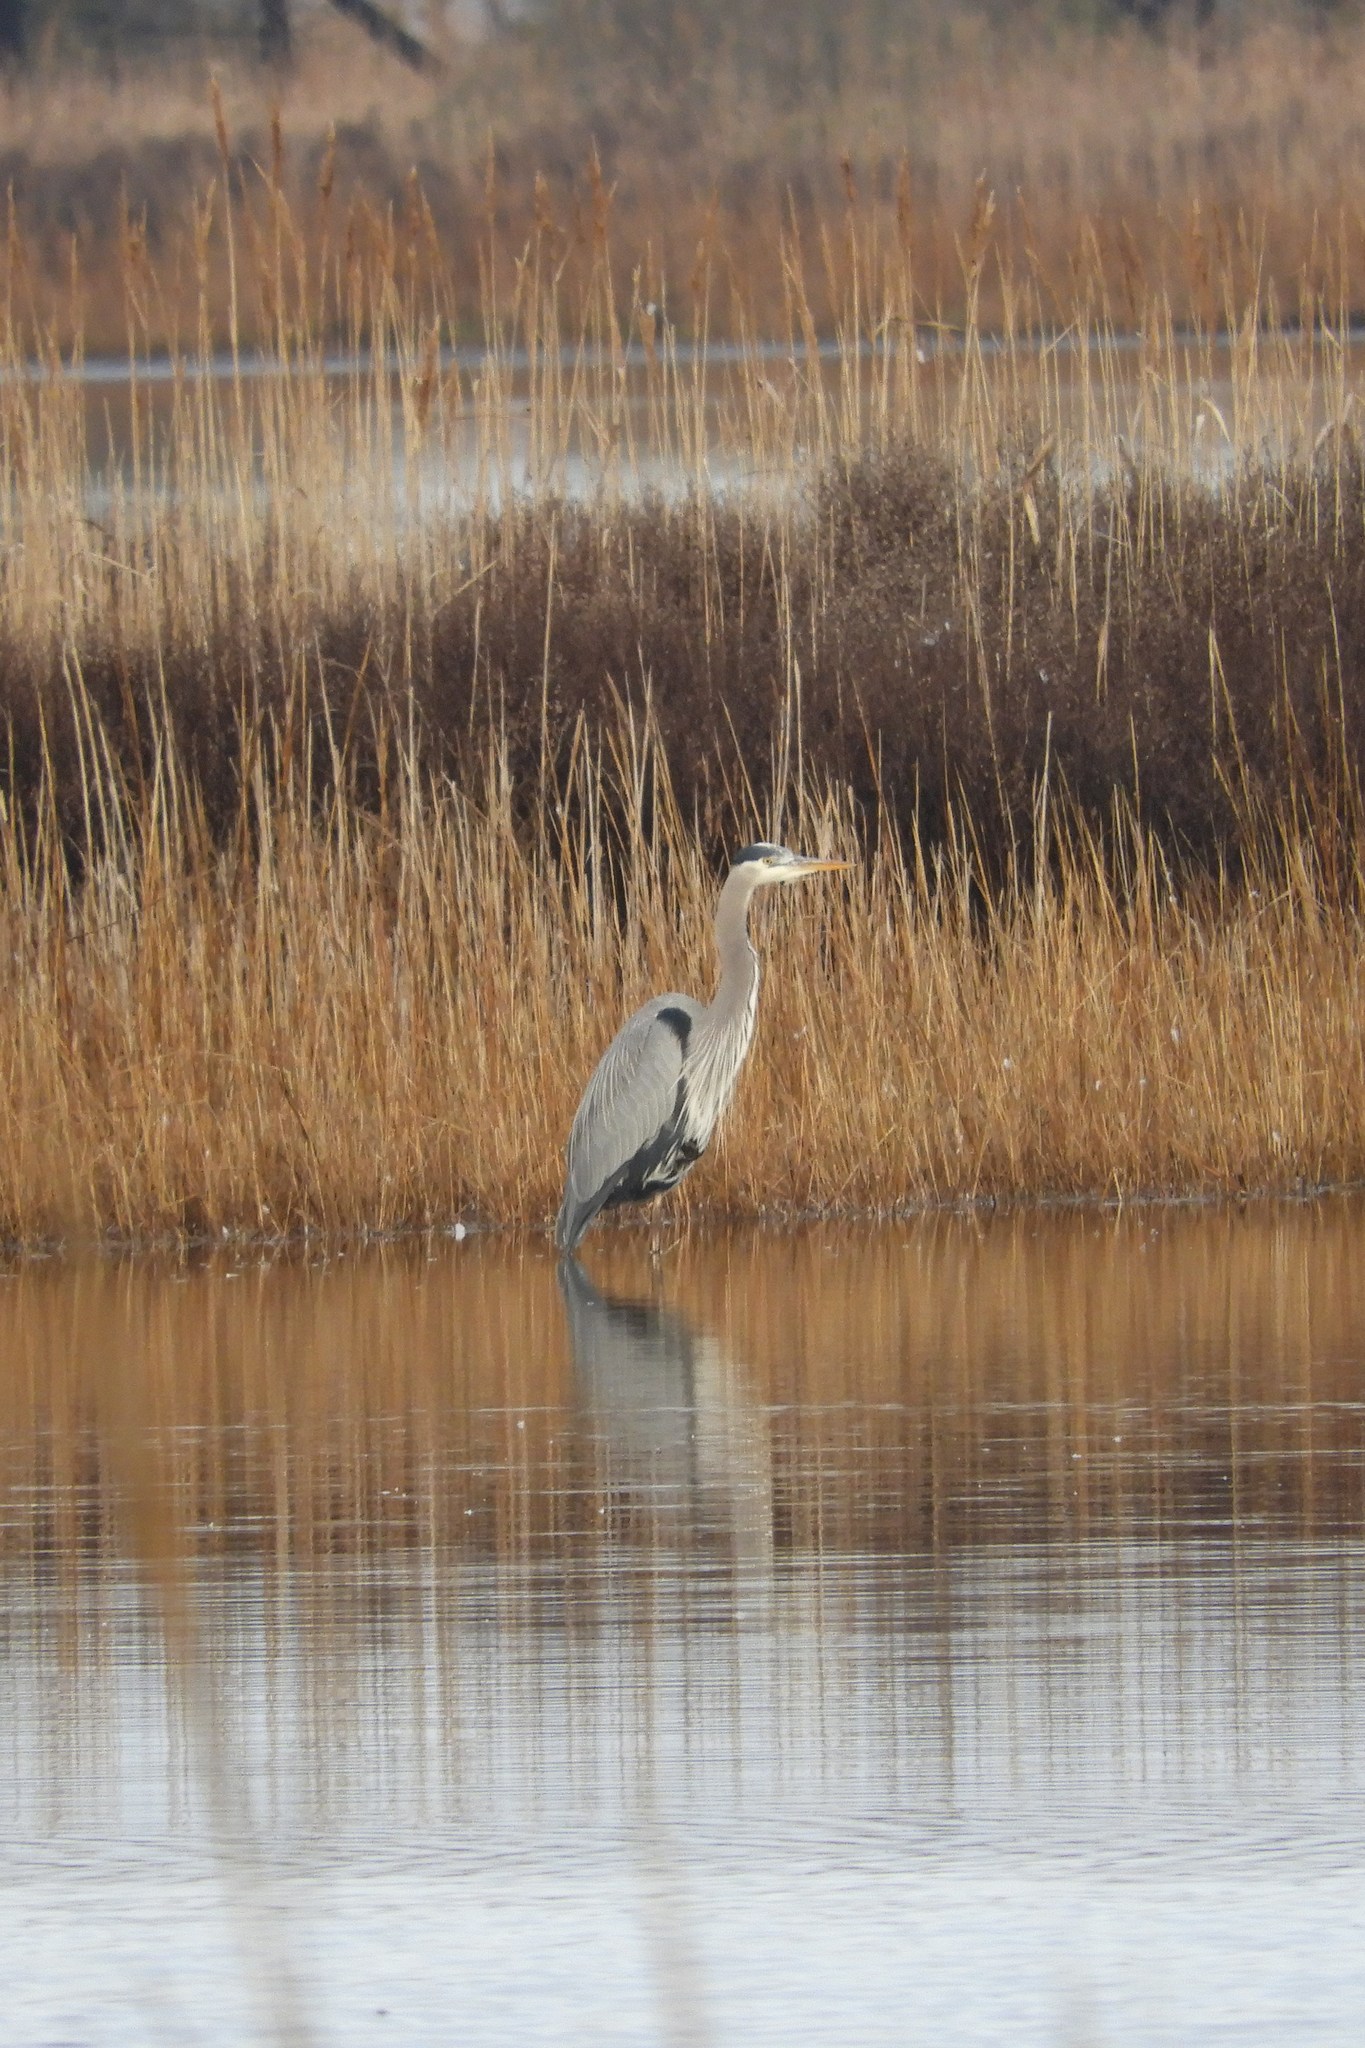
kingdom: Animalia
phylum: Chordata
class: Aves
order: Pelecaniformes
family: Ardeidae
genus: Ardea
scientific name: Ardea herodias
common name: Great blue heron
